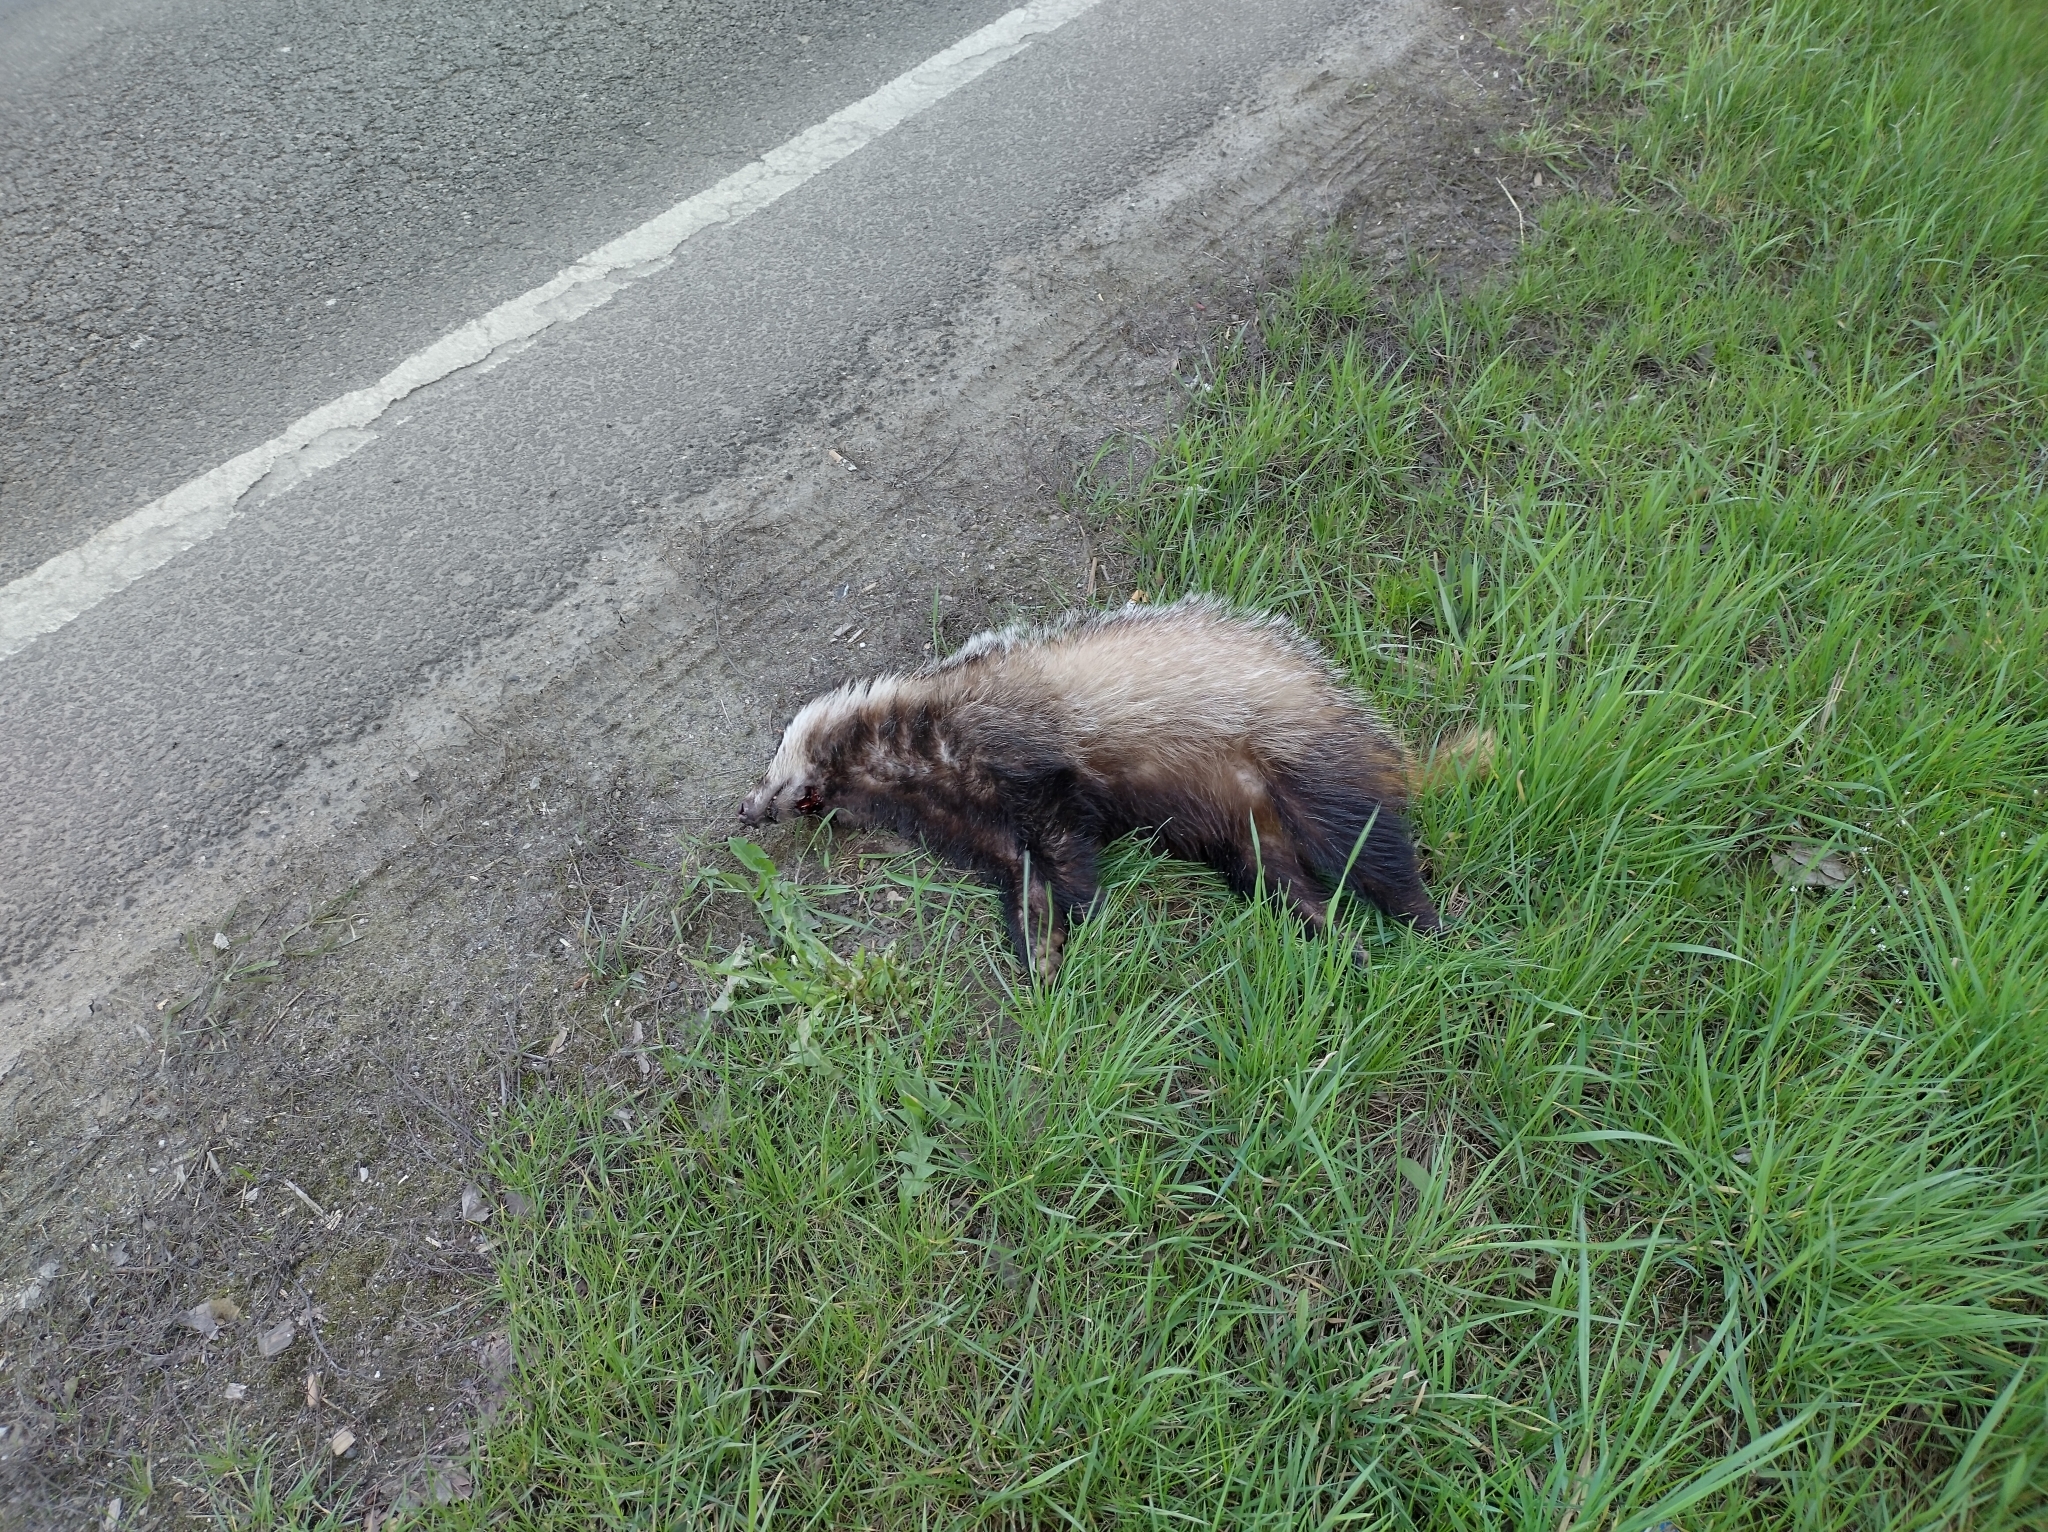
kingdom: Animalia
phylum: Chordata
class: Mammalia
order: Carnivora
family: Mustelidae
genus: Meles
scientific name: Meles meles
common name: Eurasian badger
